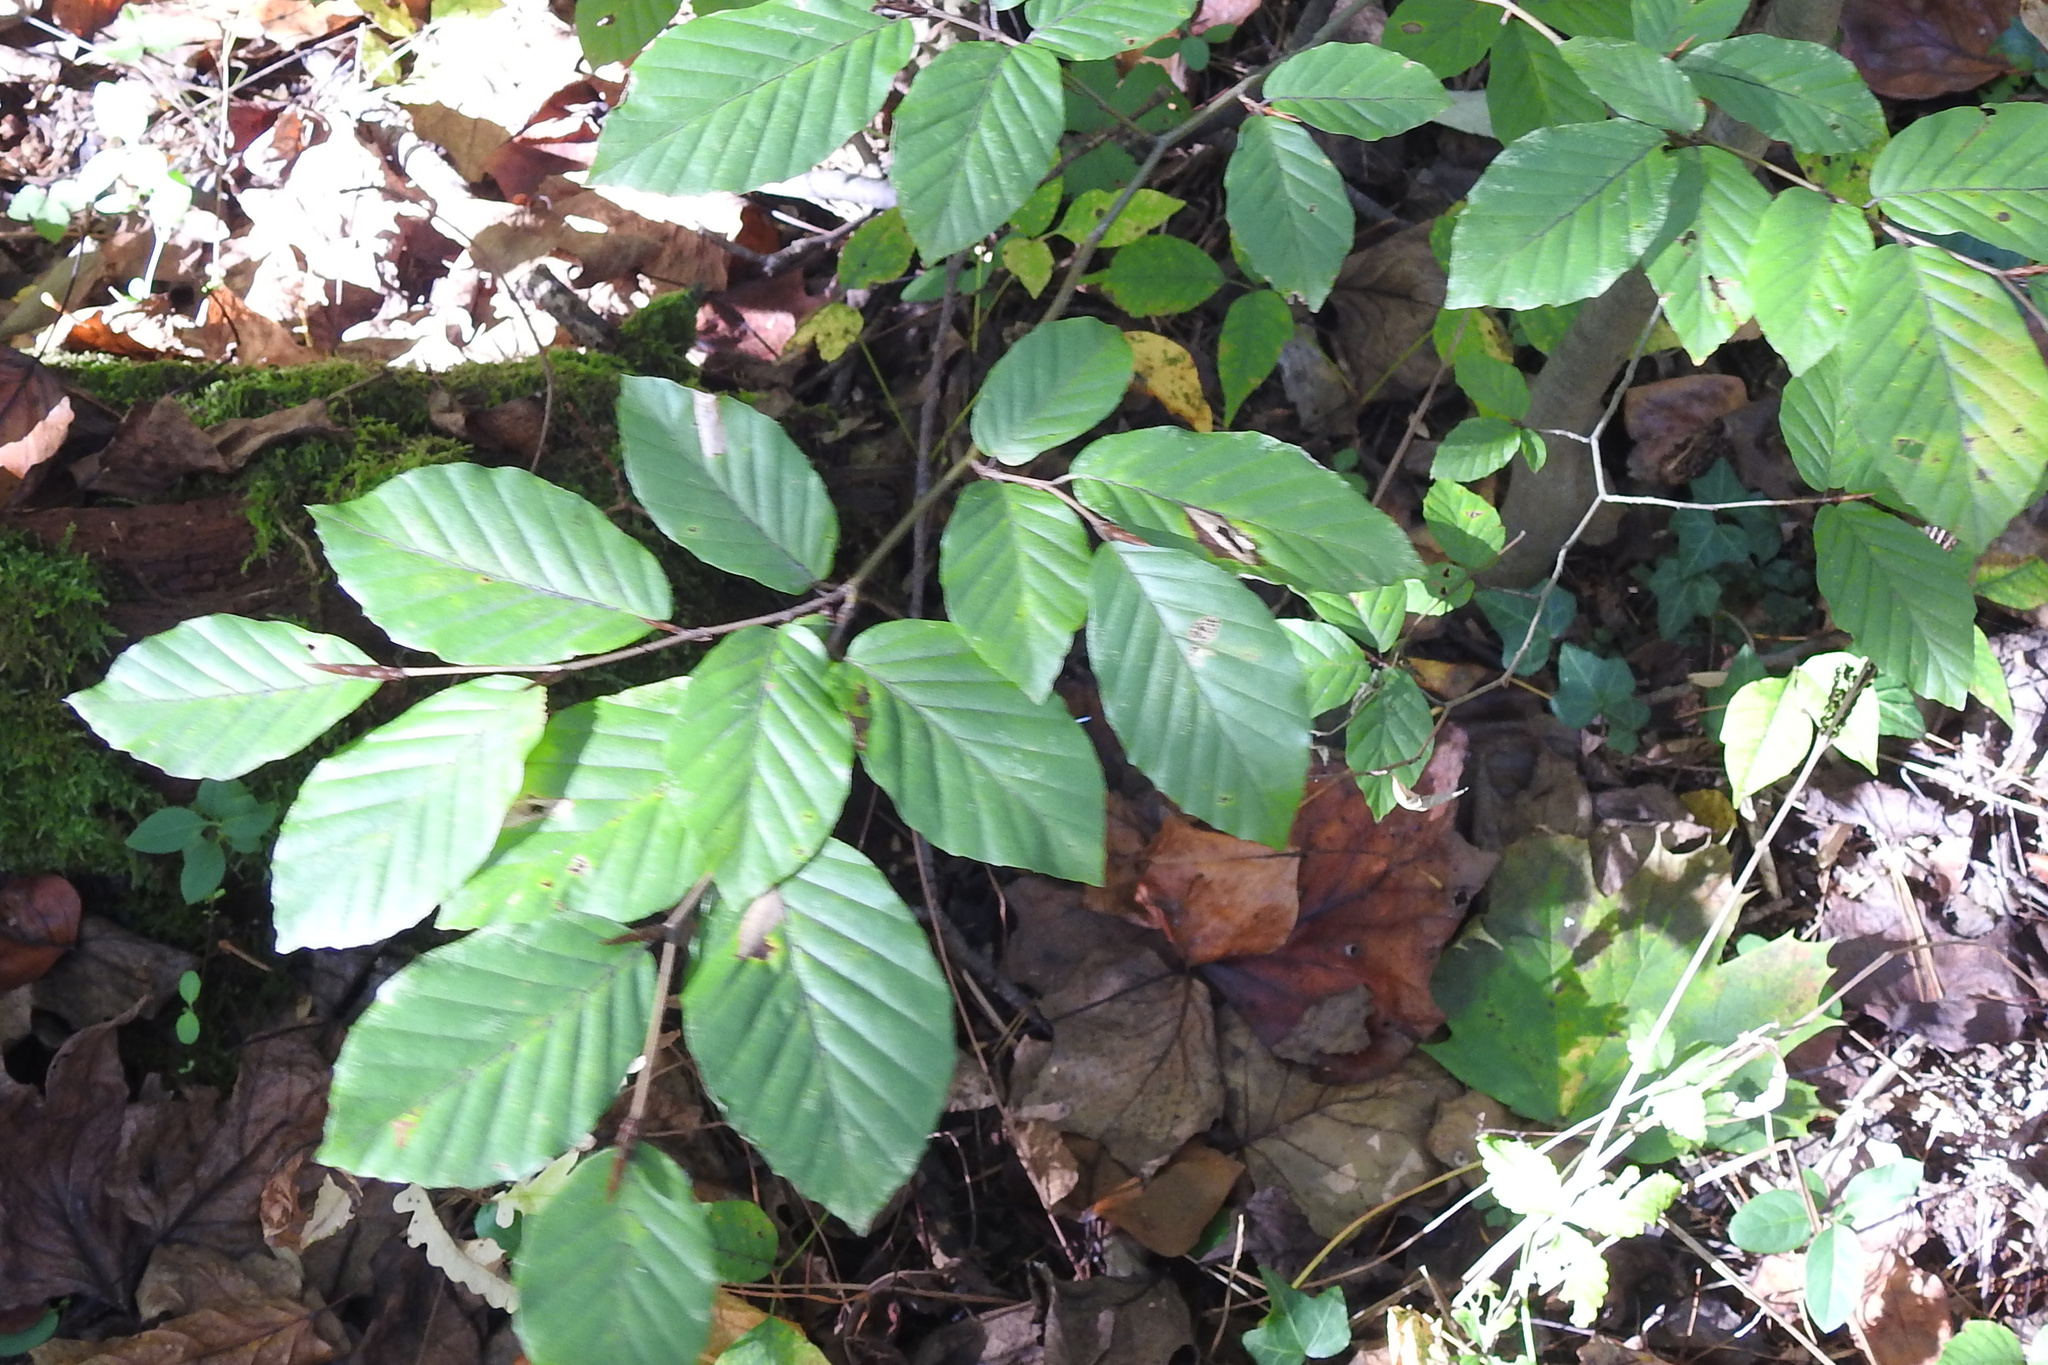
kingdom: Plantae
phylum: Tracheophyta
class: Magnoliopsida
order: Fagales
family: Fagaceae
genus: Fagus
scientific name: Fagus grandifolia
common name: American beech
